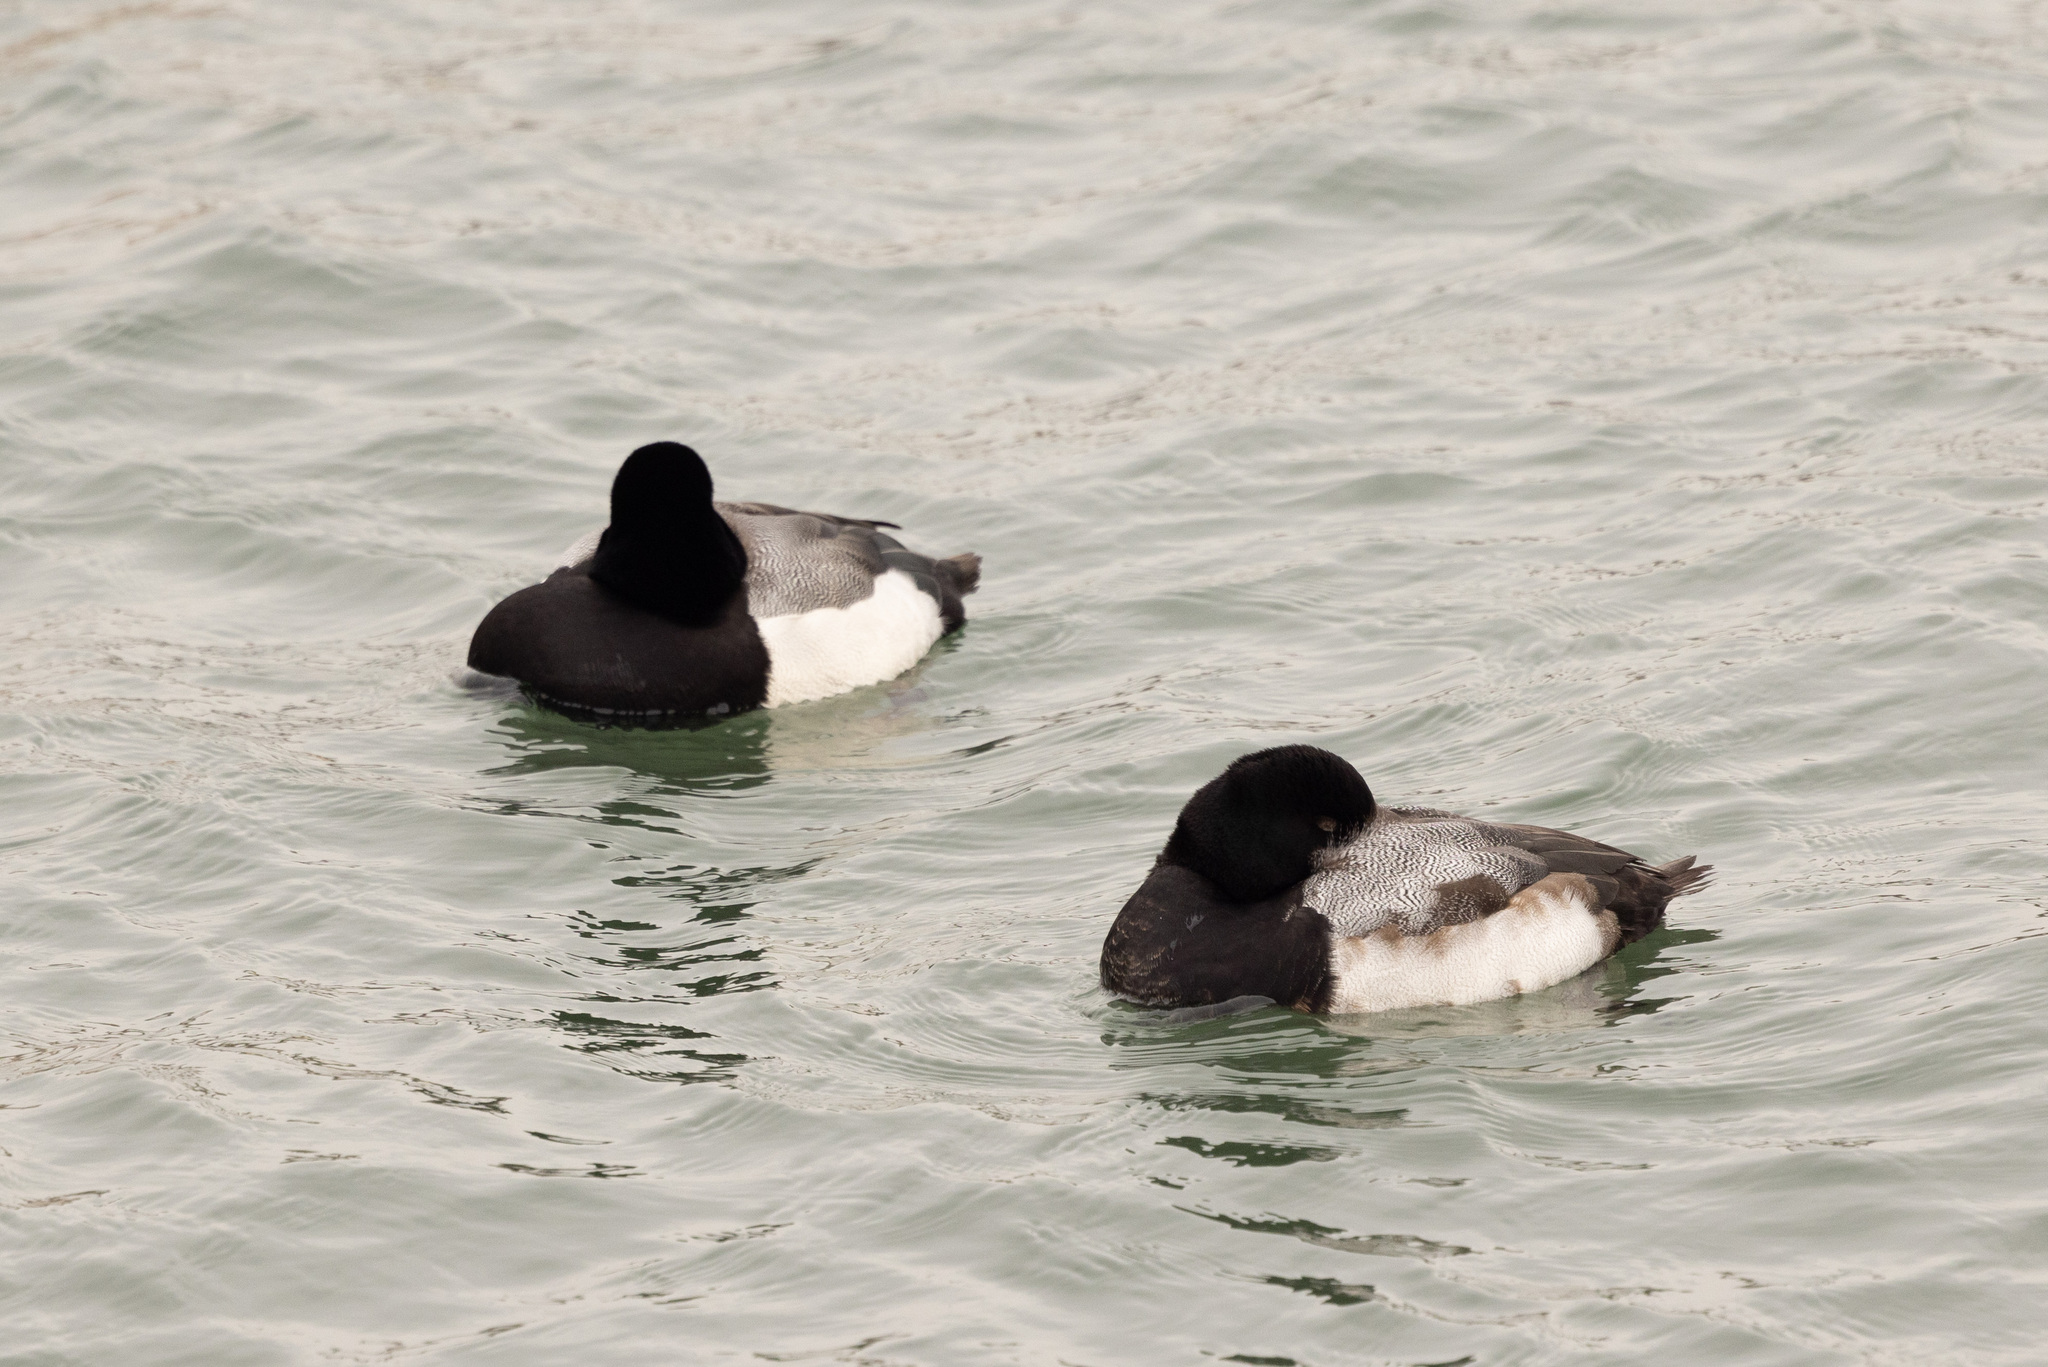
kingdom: Animalia
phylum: Chordata
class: Aves
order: Anseriformes
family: Anatidae
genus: Aythya
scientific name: Aythya marila
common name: Greater scaup
